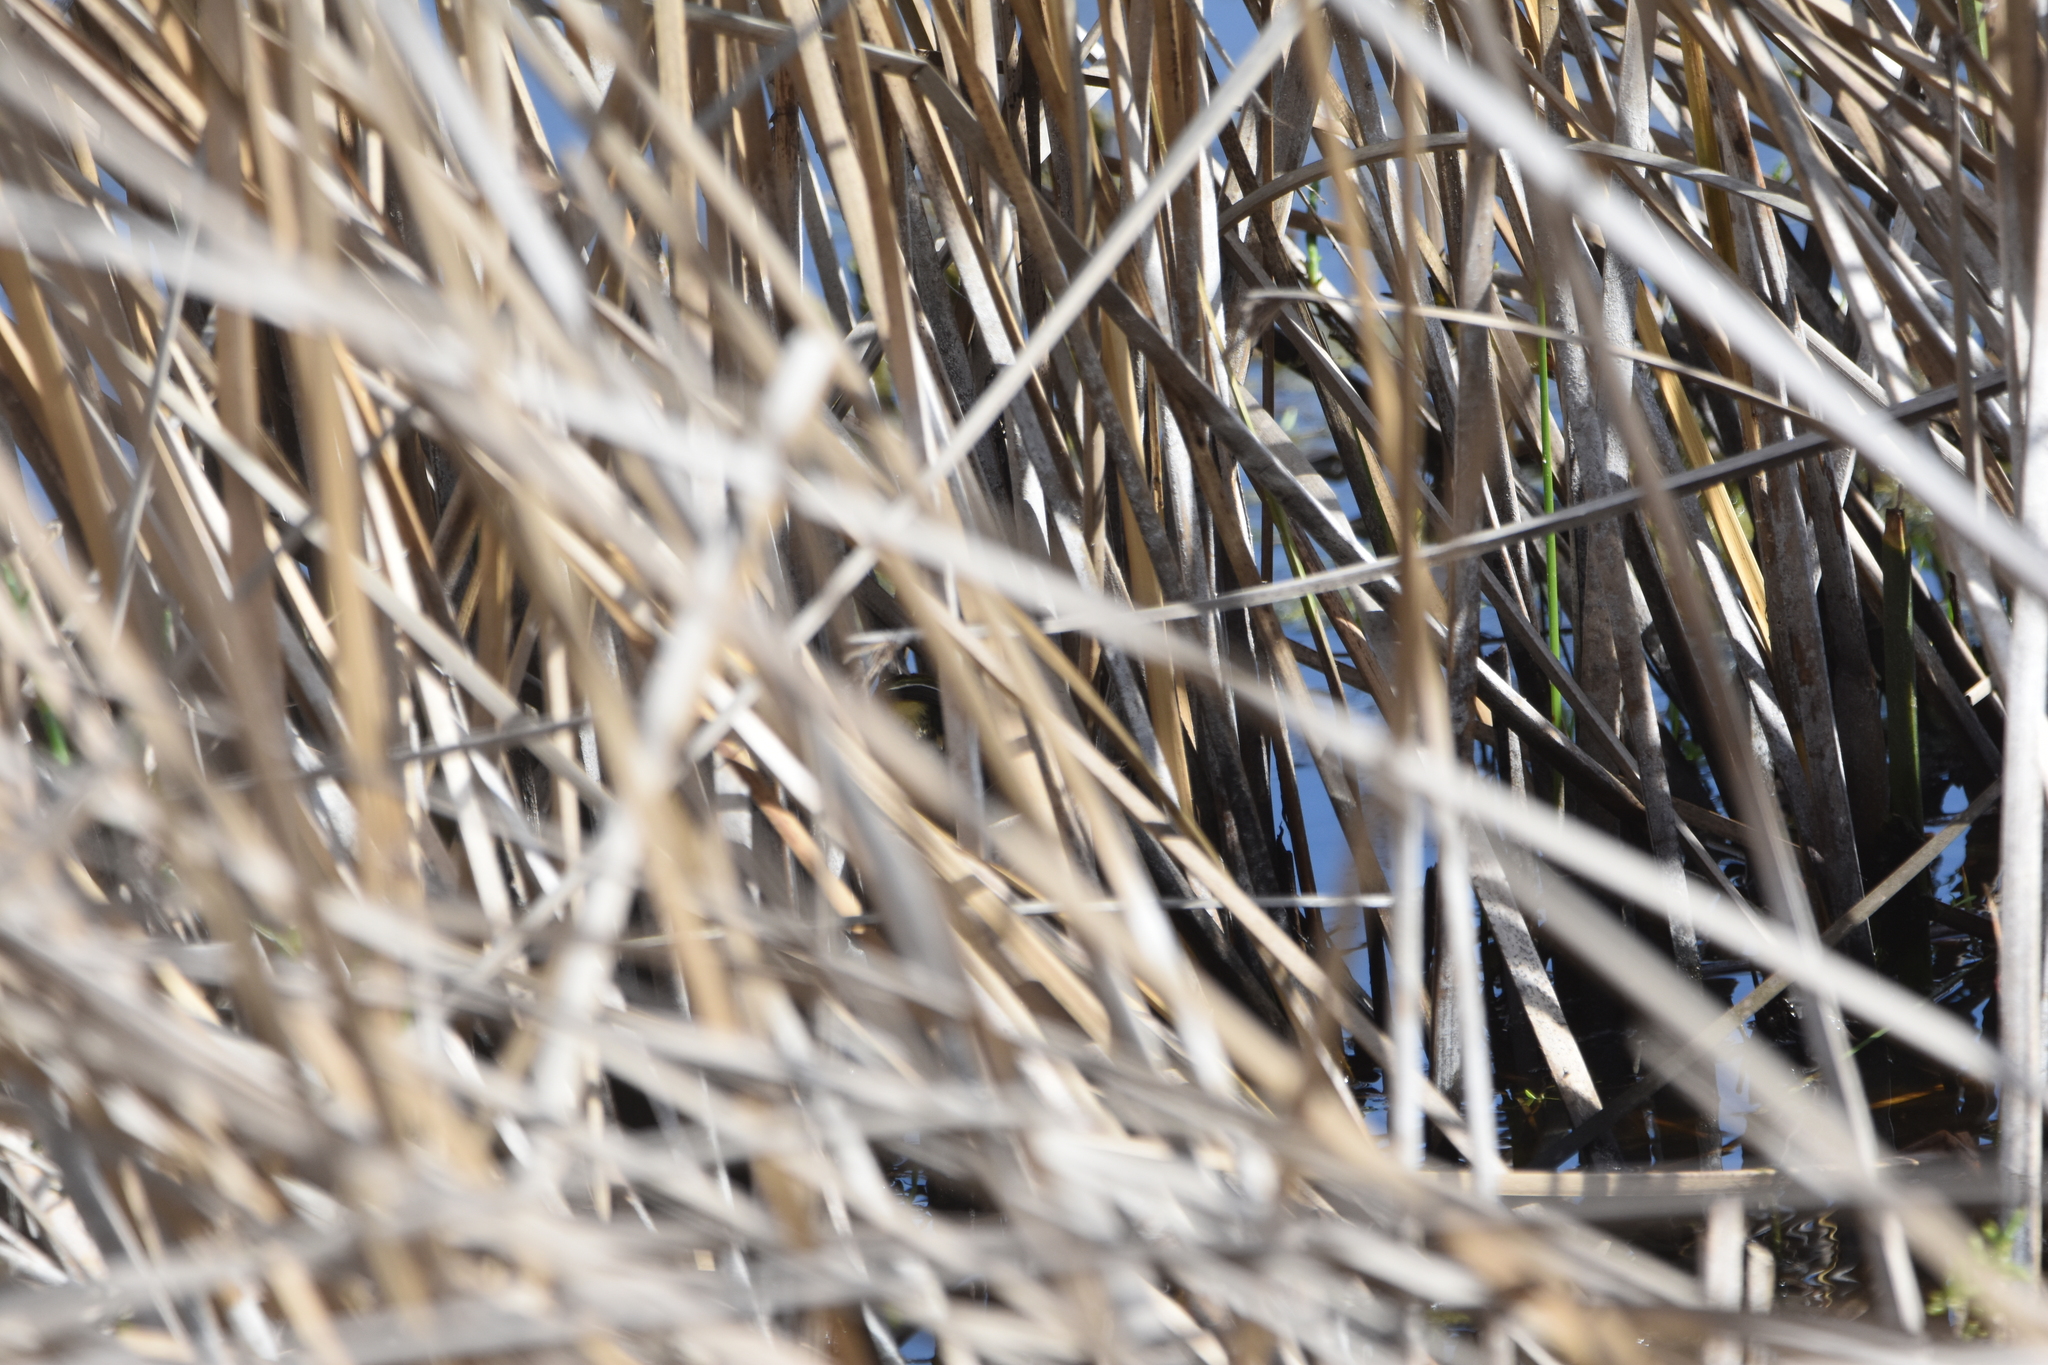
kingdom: Animalia
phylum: Chordata
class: Aves
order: Passeriformes
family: Tyrannidae
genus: Tachuris
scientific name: Tachuris rubrigastra
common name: Many-colored rush tyrant
